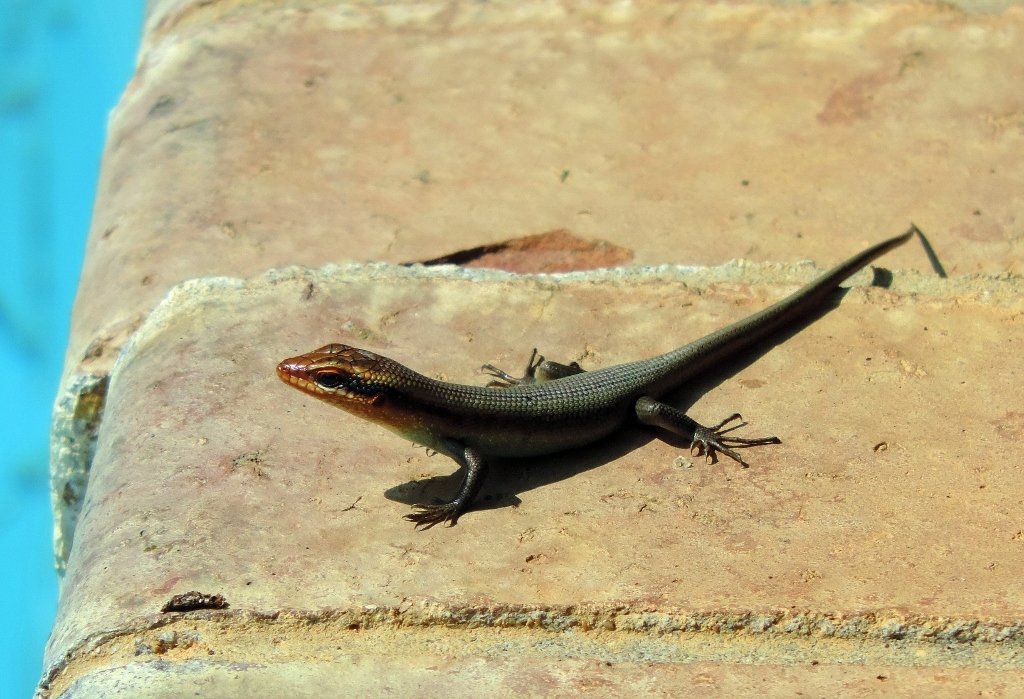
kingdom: Animalia
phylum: Chordata
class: Squamata
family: Scincidae
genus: Trachylepis
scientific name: Trachylepis wahlbergii
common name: Wahlberg’s striped skink
